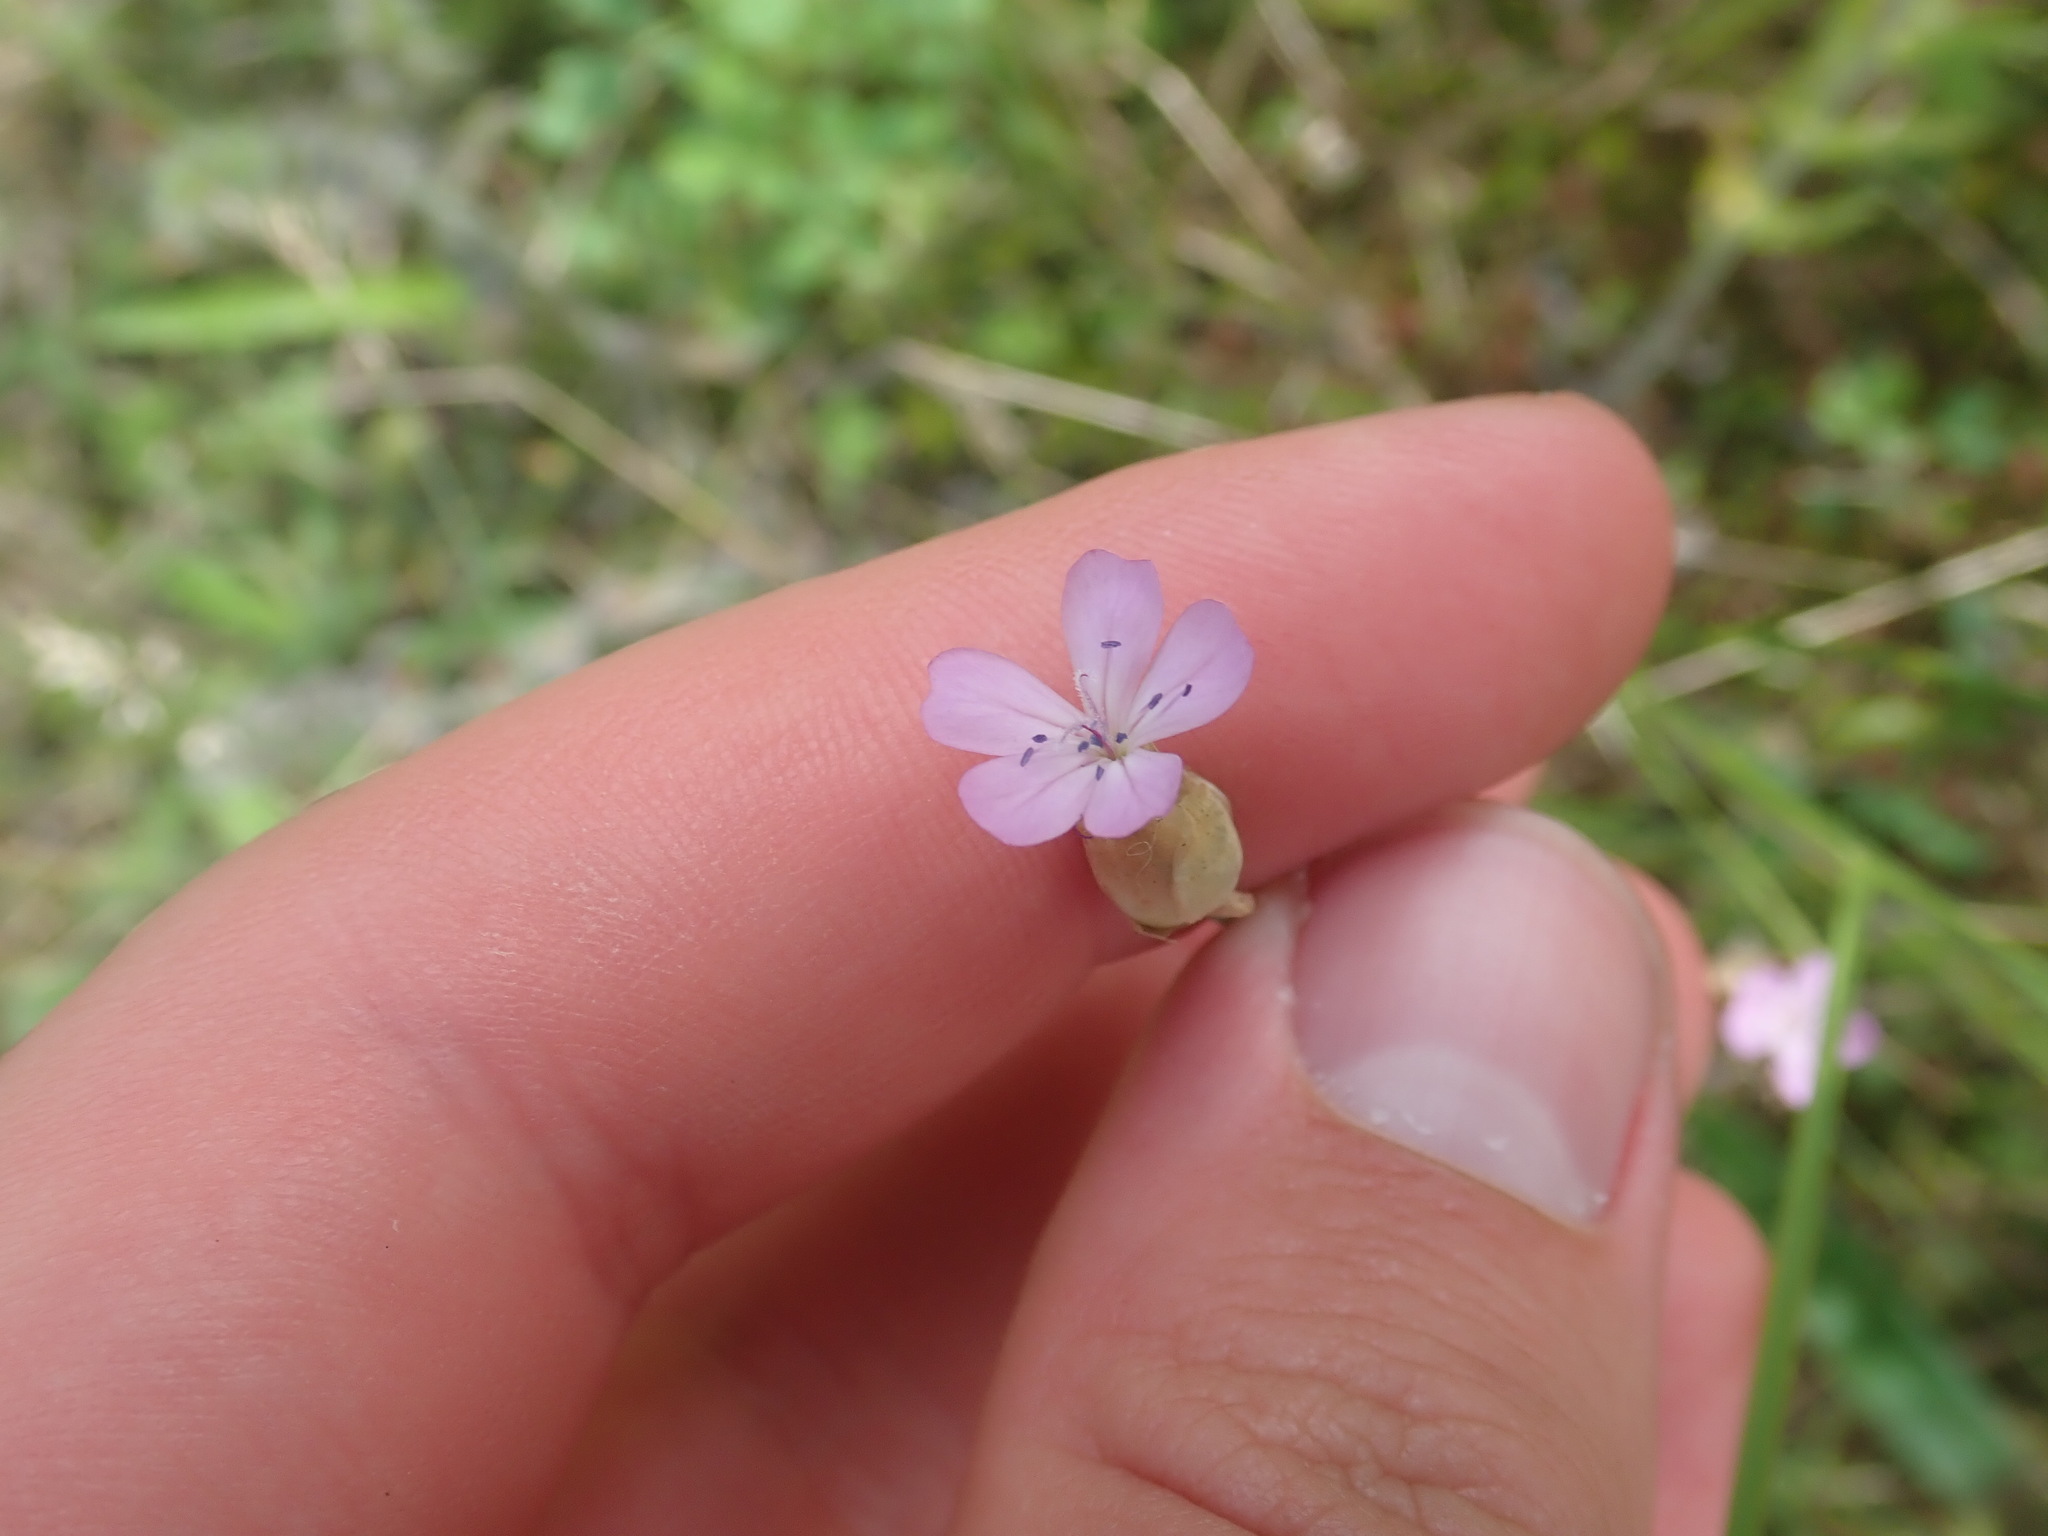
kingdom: Plantae
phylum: Tracheophyta
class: Magnoliopsida
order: Caryophyllales
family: Caryophyllaceae
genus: Petrorhagia
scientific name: Petrorhagia prolifera
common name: Proliferous pink
